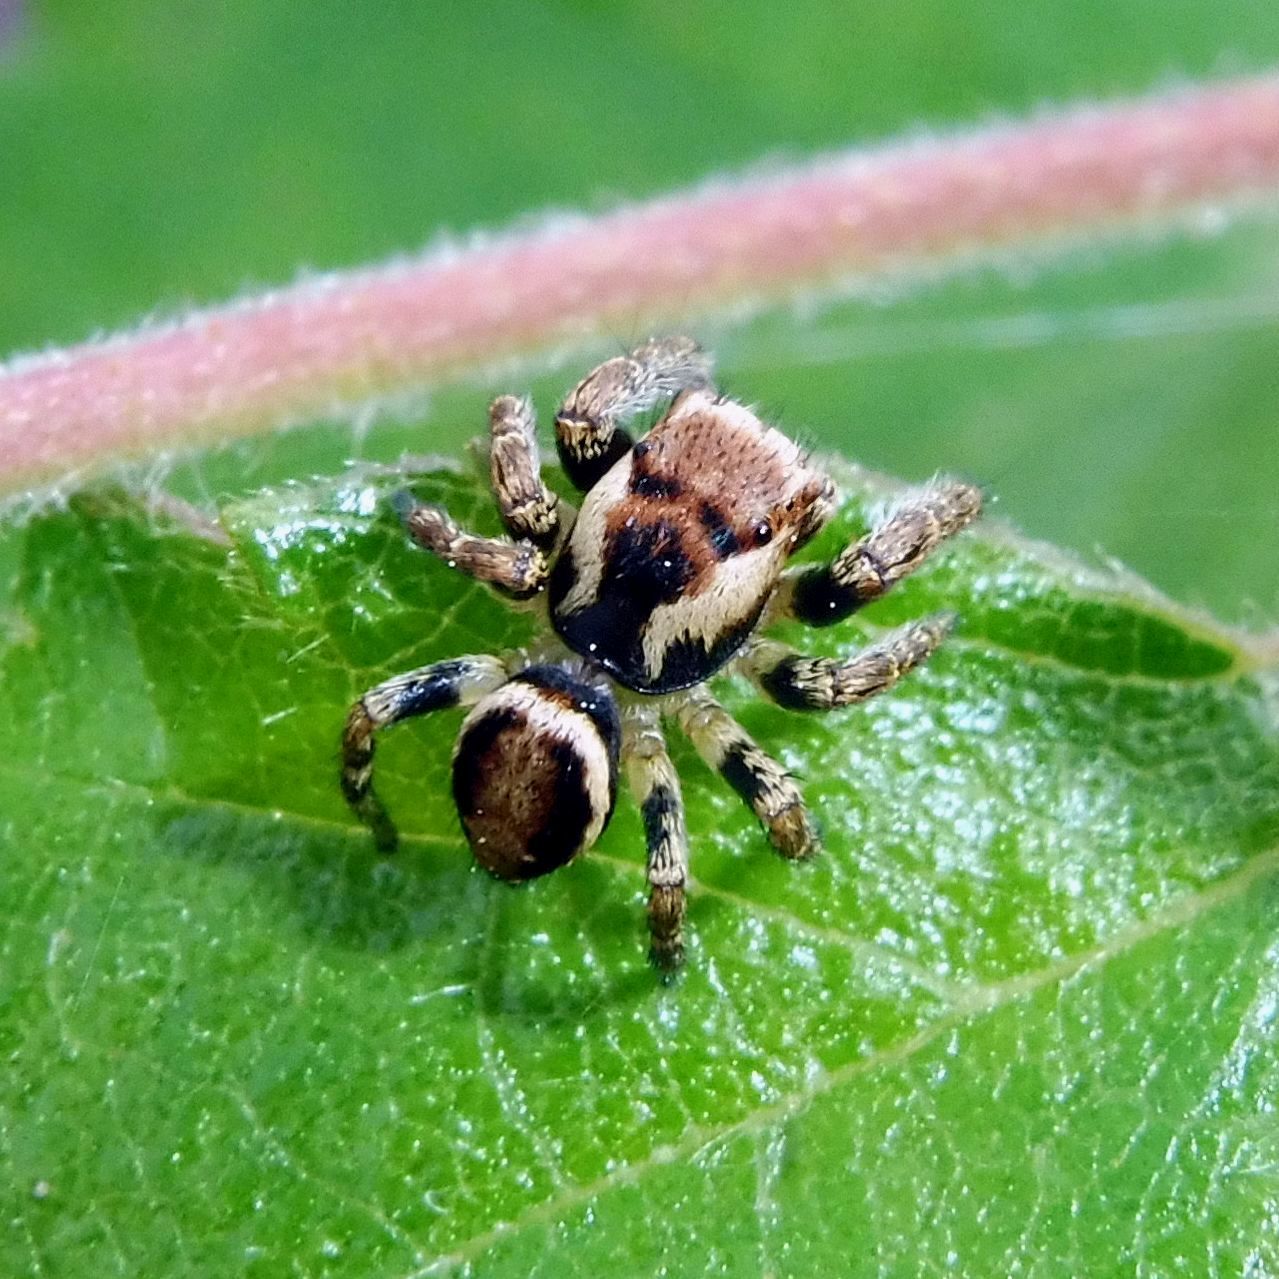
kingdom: Animalia
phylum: Arthropoda
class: Arachnida
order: Araneae
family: Salticidae
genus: Evarcha
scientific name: Evarcha falcata
